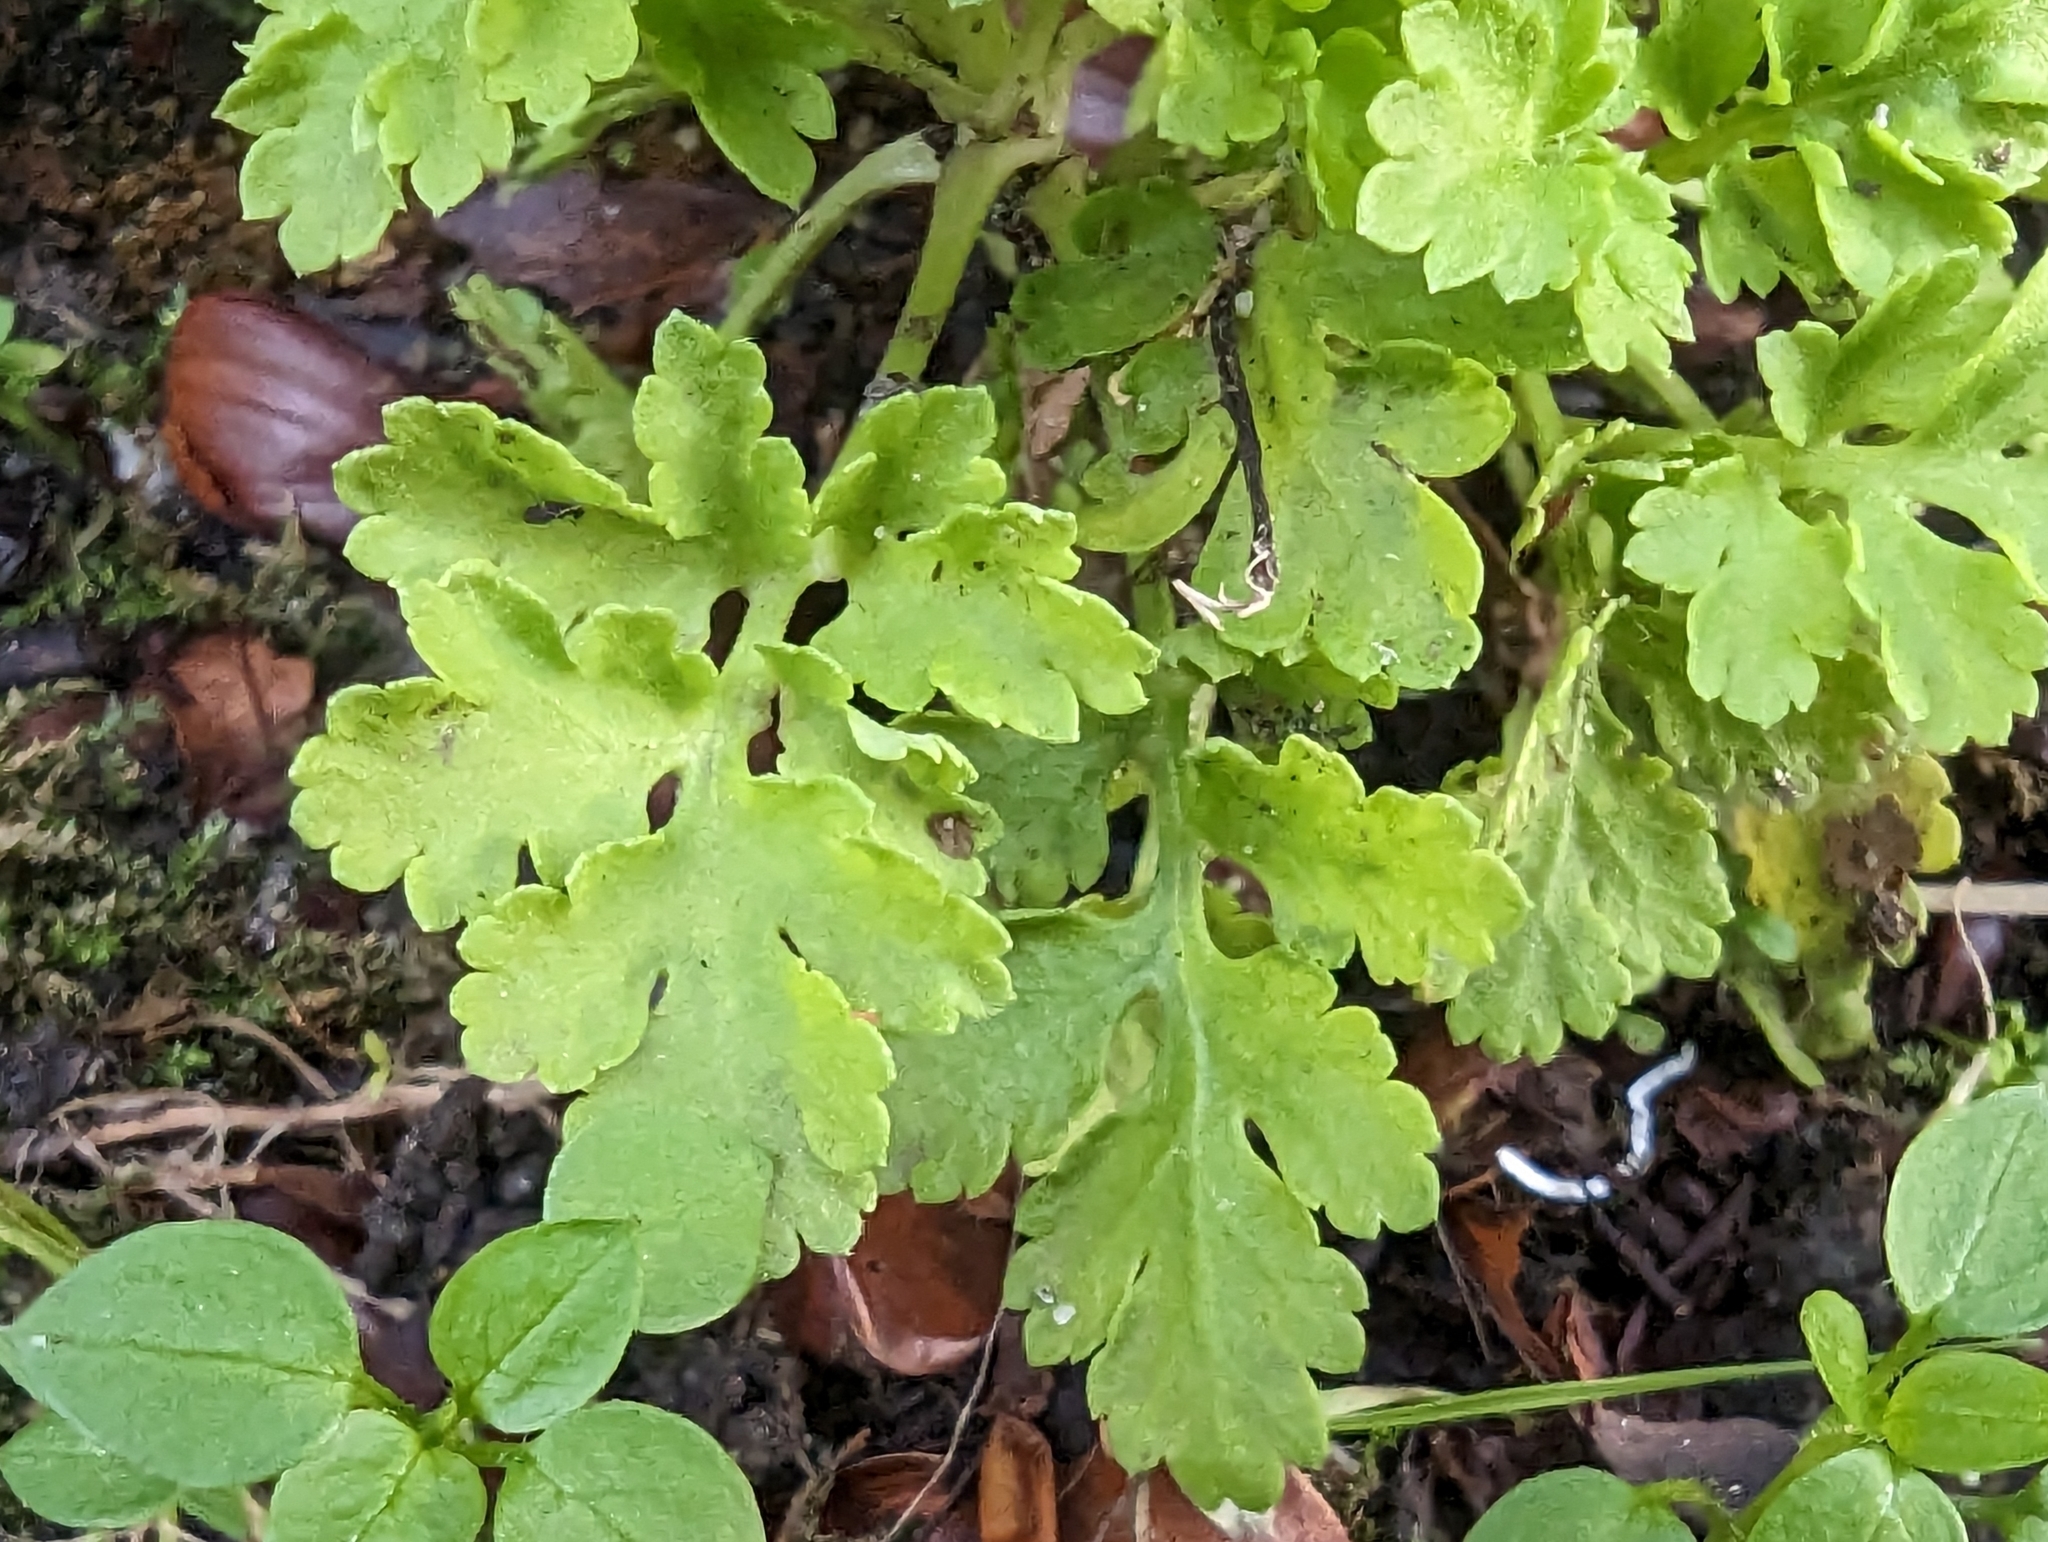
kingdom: Plantae
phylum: Tracheophyta
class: Magnoliopsida
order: Asterales
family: Asteraceae
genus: Tanacetum
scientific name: Tanacetum parthenium
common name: Feverfew
